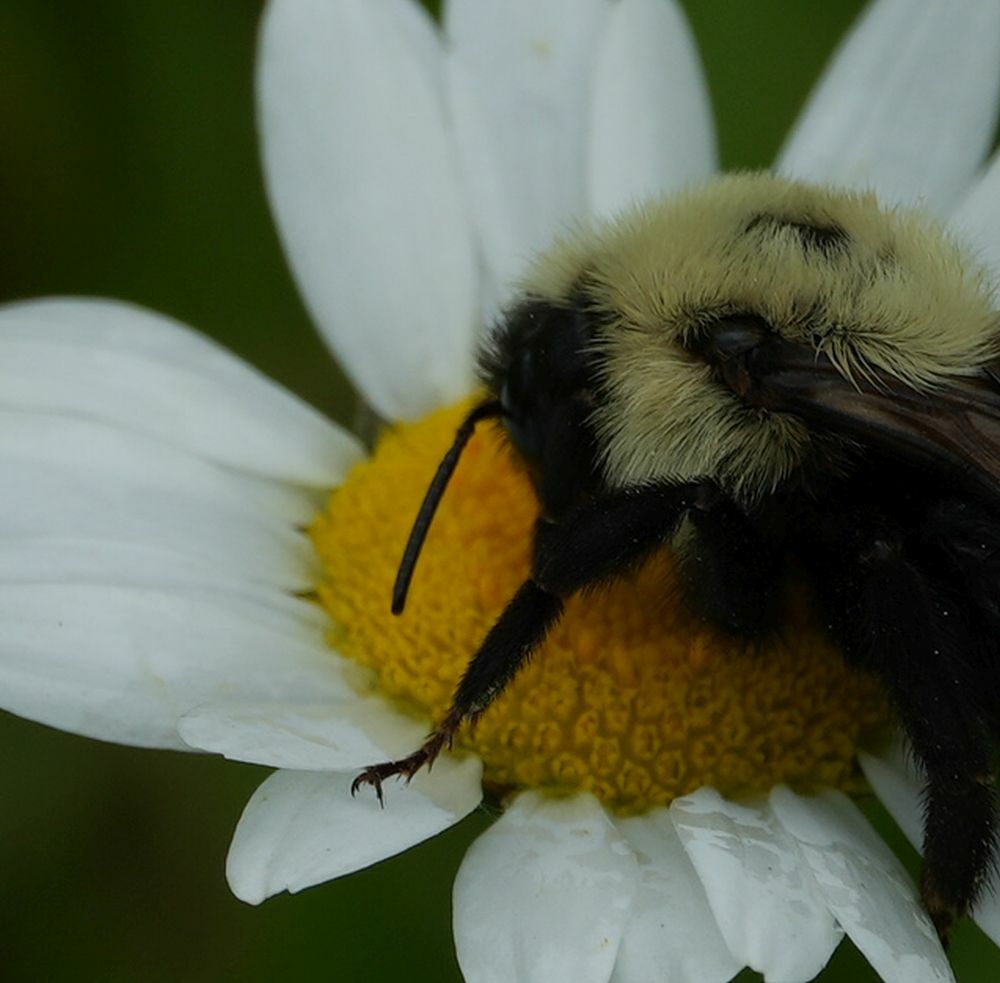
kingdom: Animalia
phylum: Arthropoda
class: Insecta
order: Hymenoptera
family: Apidae
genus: Bombus
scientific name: Bombus citrinus
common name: Lemon cuckoo bumble bee
